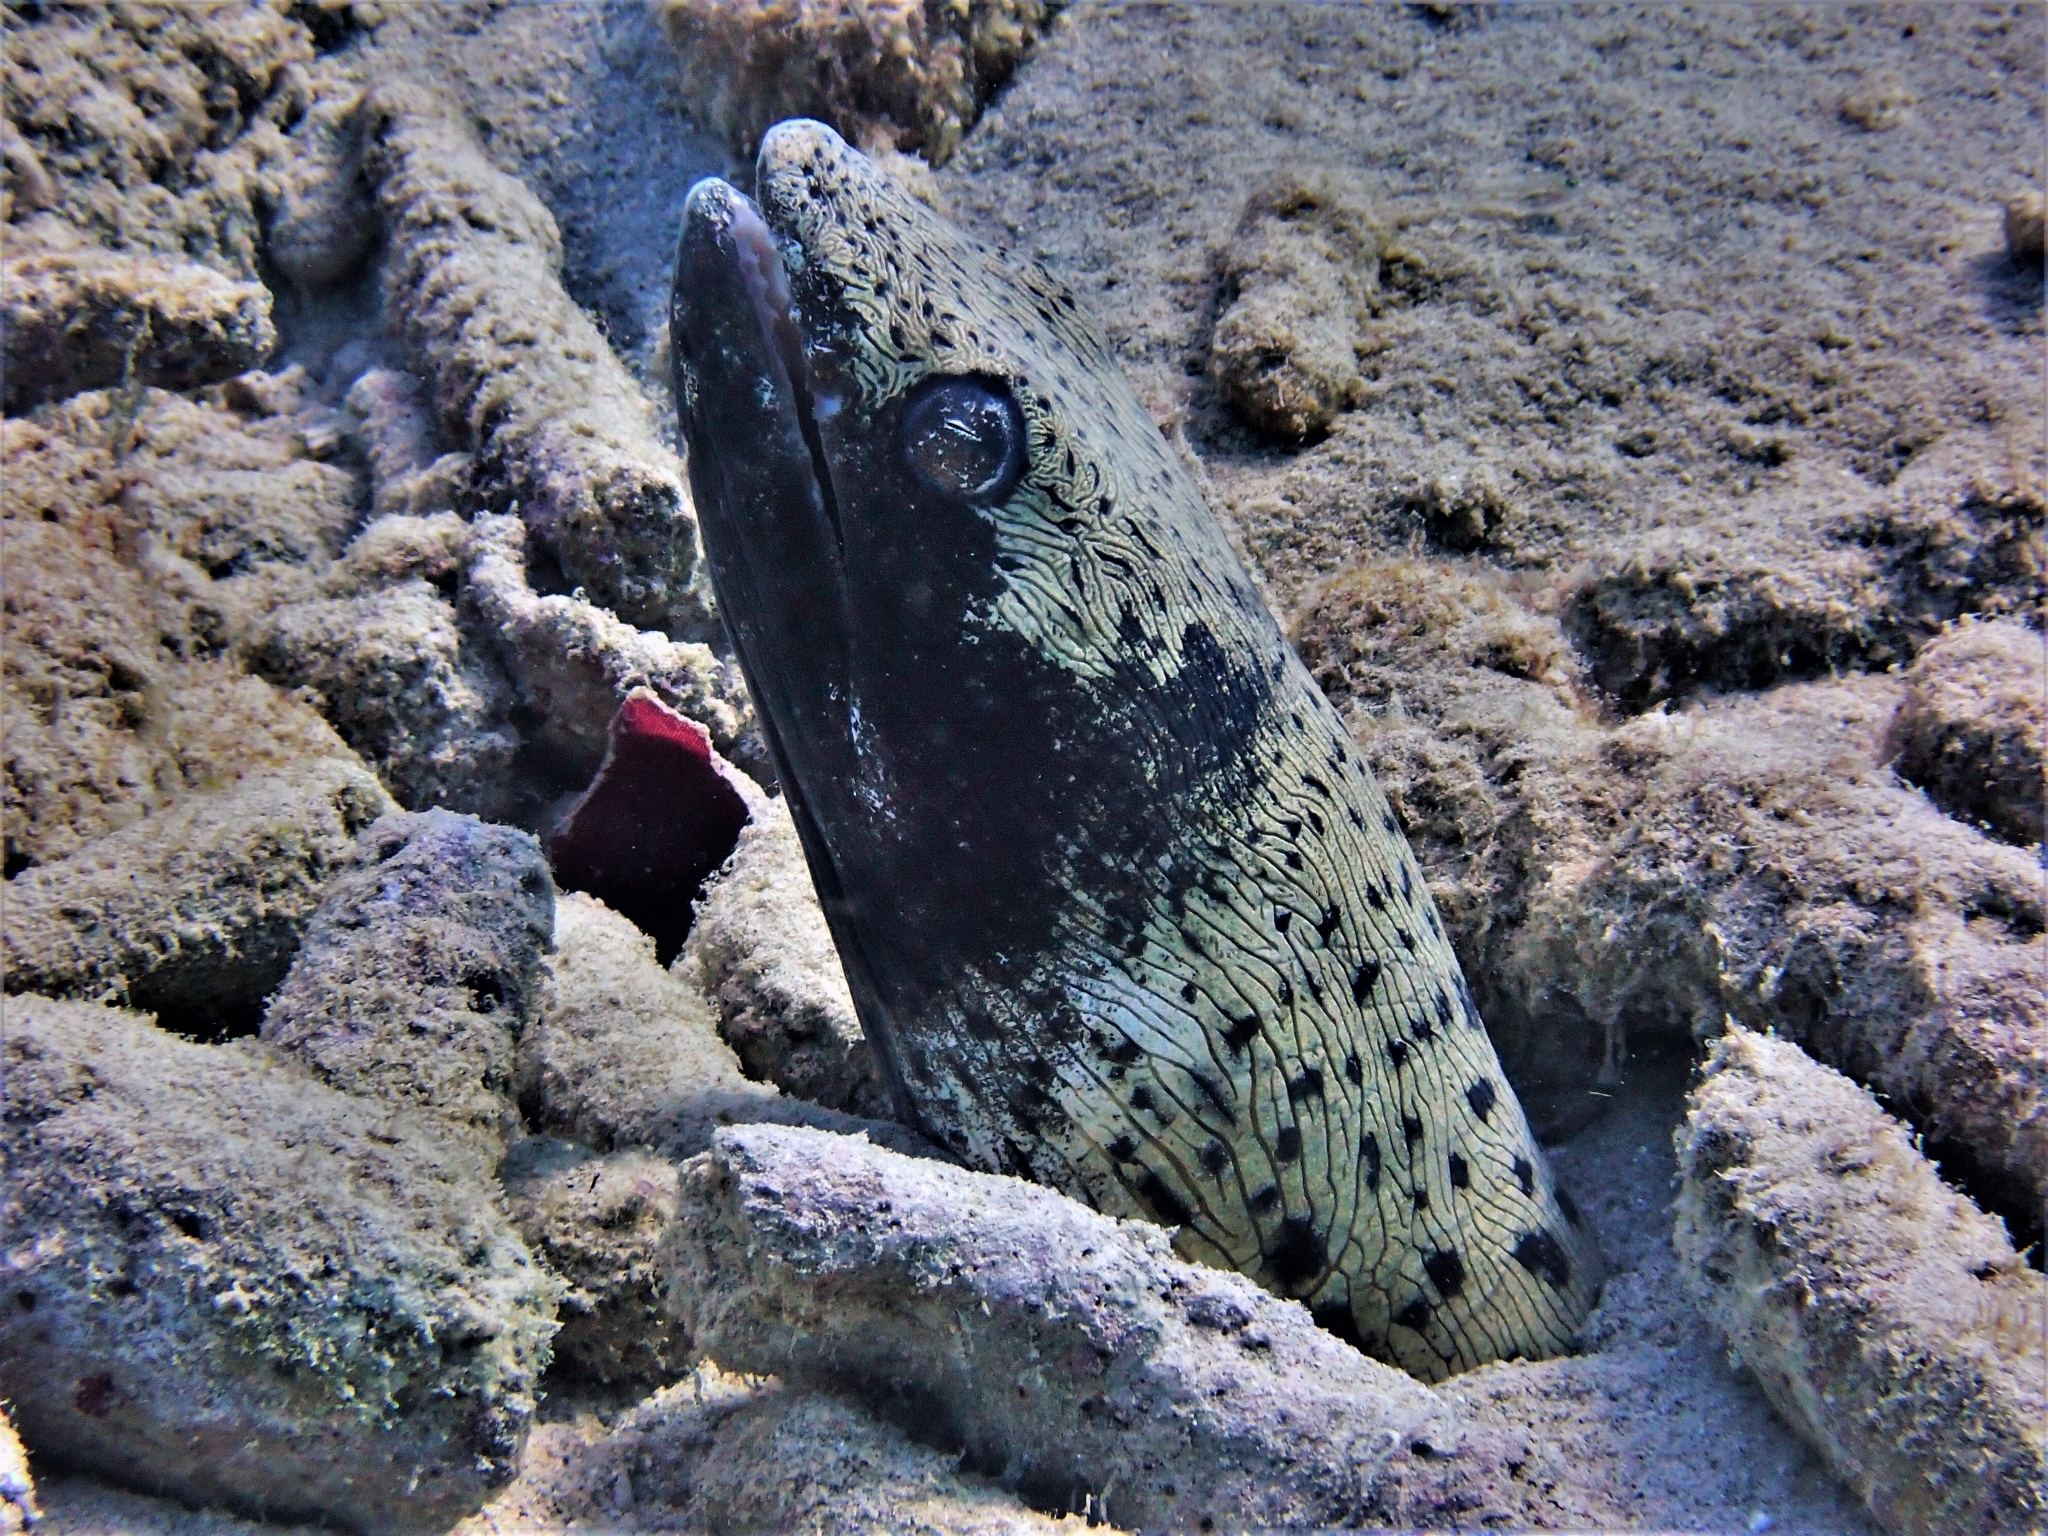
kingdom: Animalia
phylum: Chordata
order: Anguilliformes
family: Ophichthidae
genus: Ophichthus
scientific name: Ophichthus ophis
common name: Spotted snake eel
